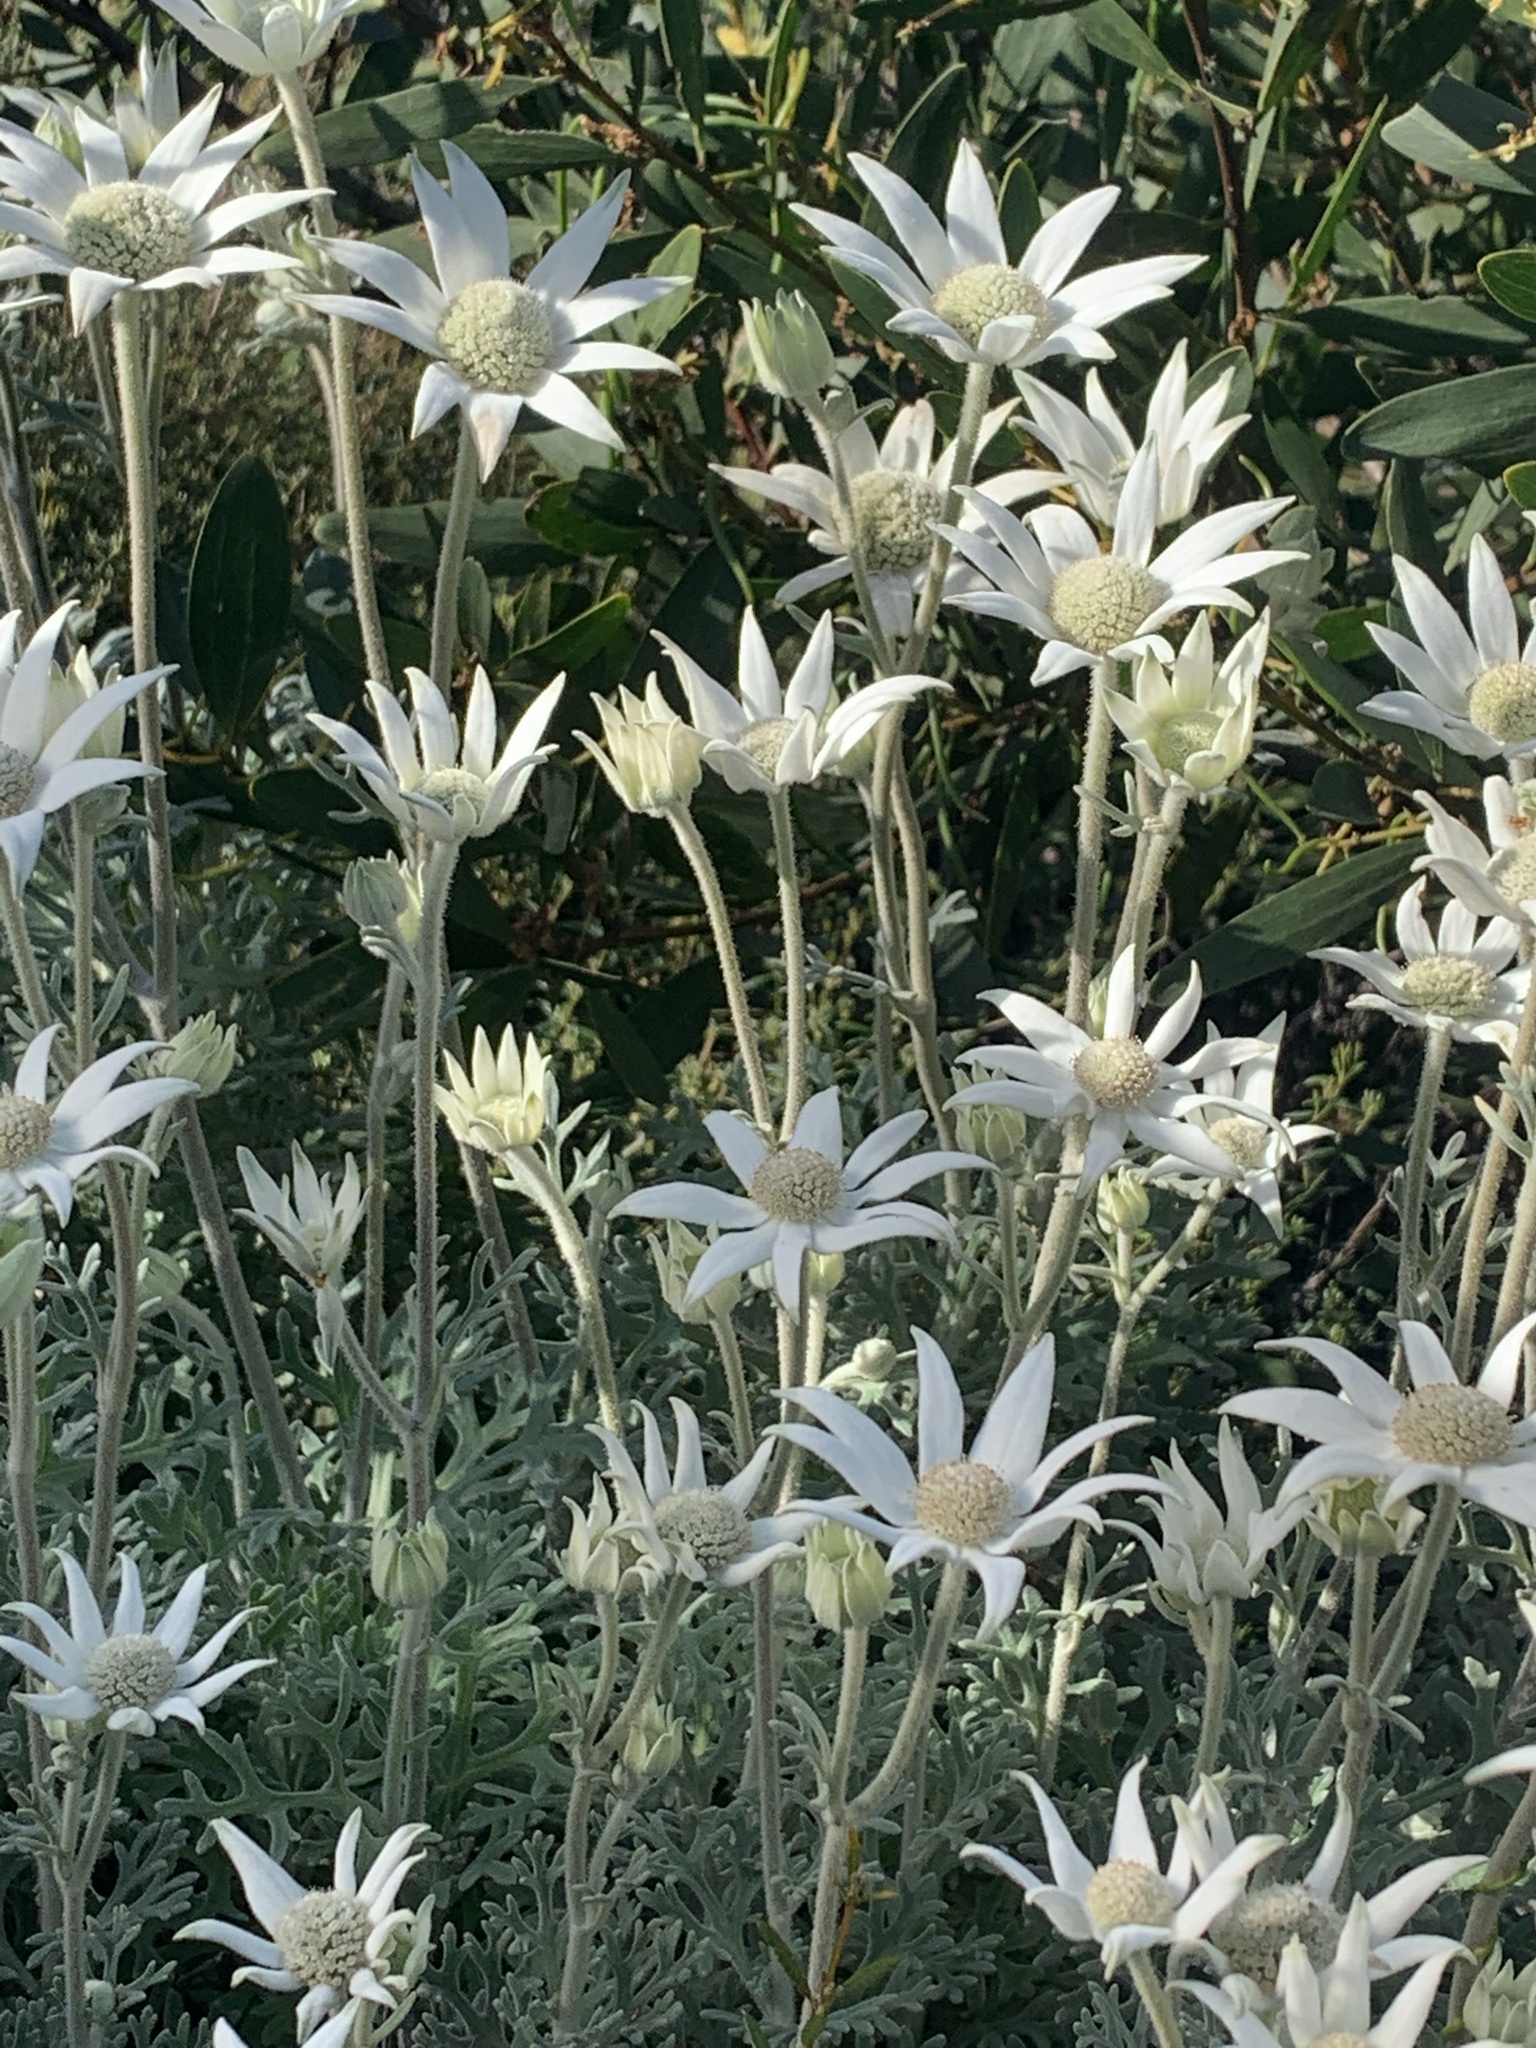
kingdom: Plantae
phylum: Tracheophyta
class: Magnoliopsida
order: Apiales
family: Apiaceae
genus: Actinotus
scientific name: Actinotus helianthi
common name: Flannel-flower
